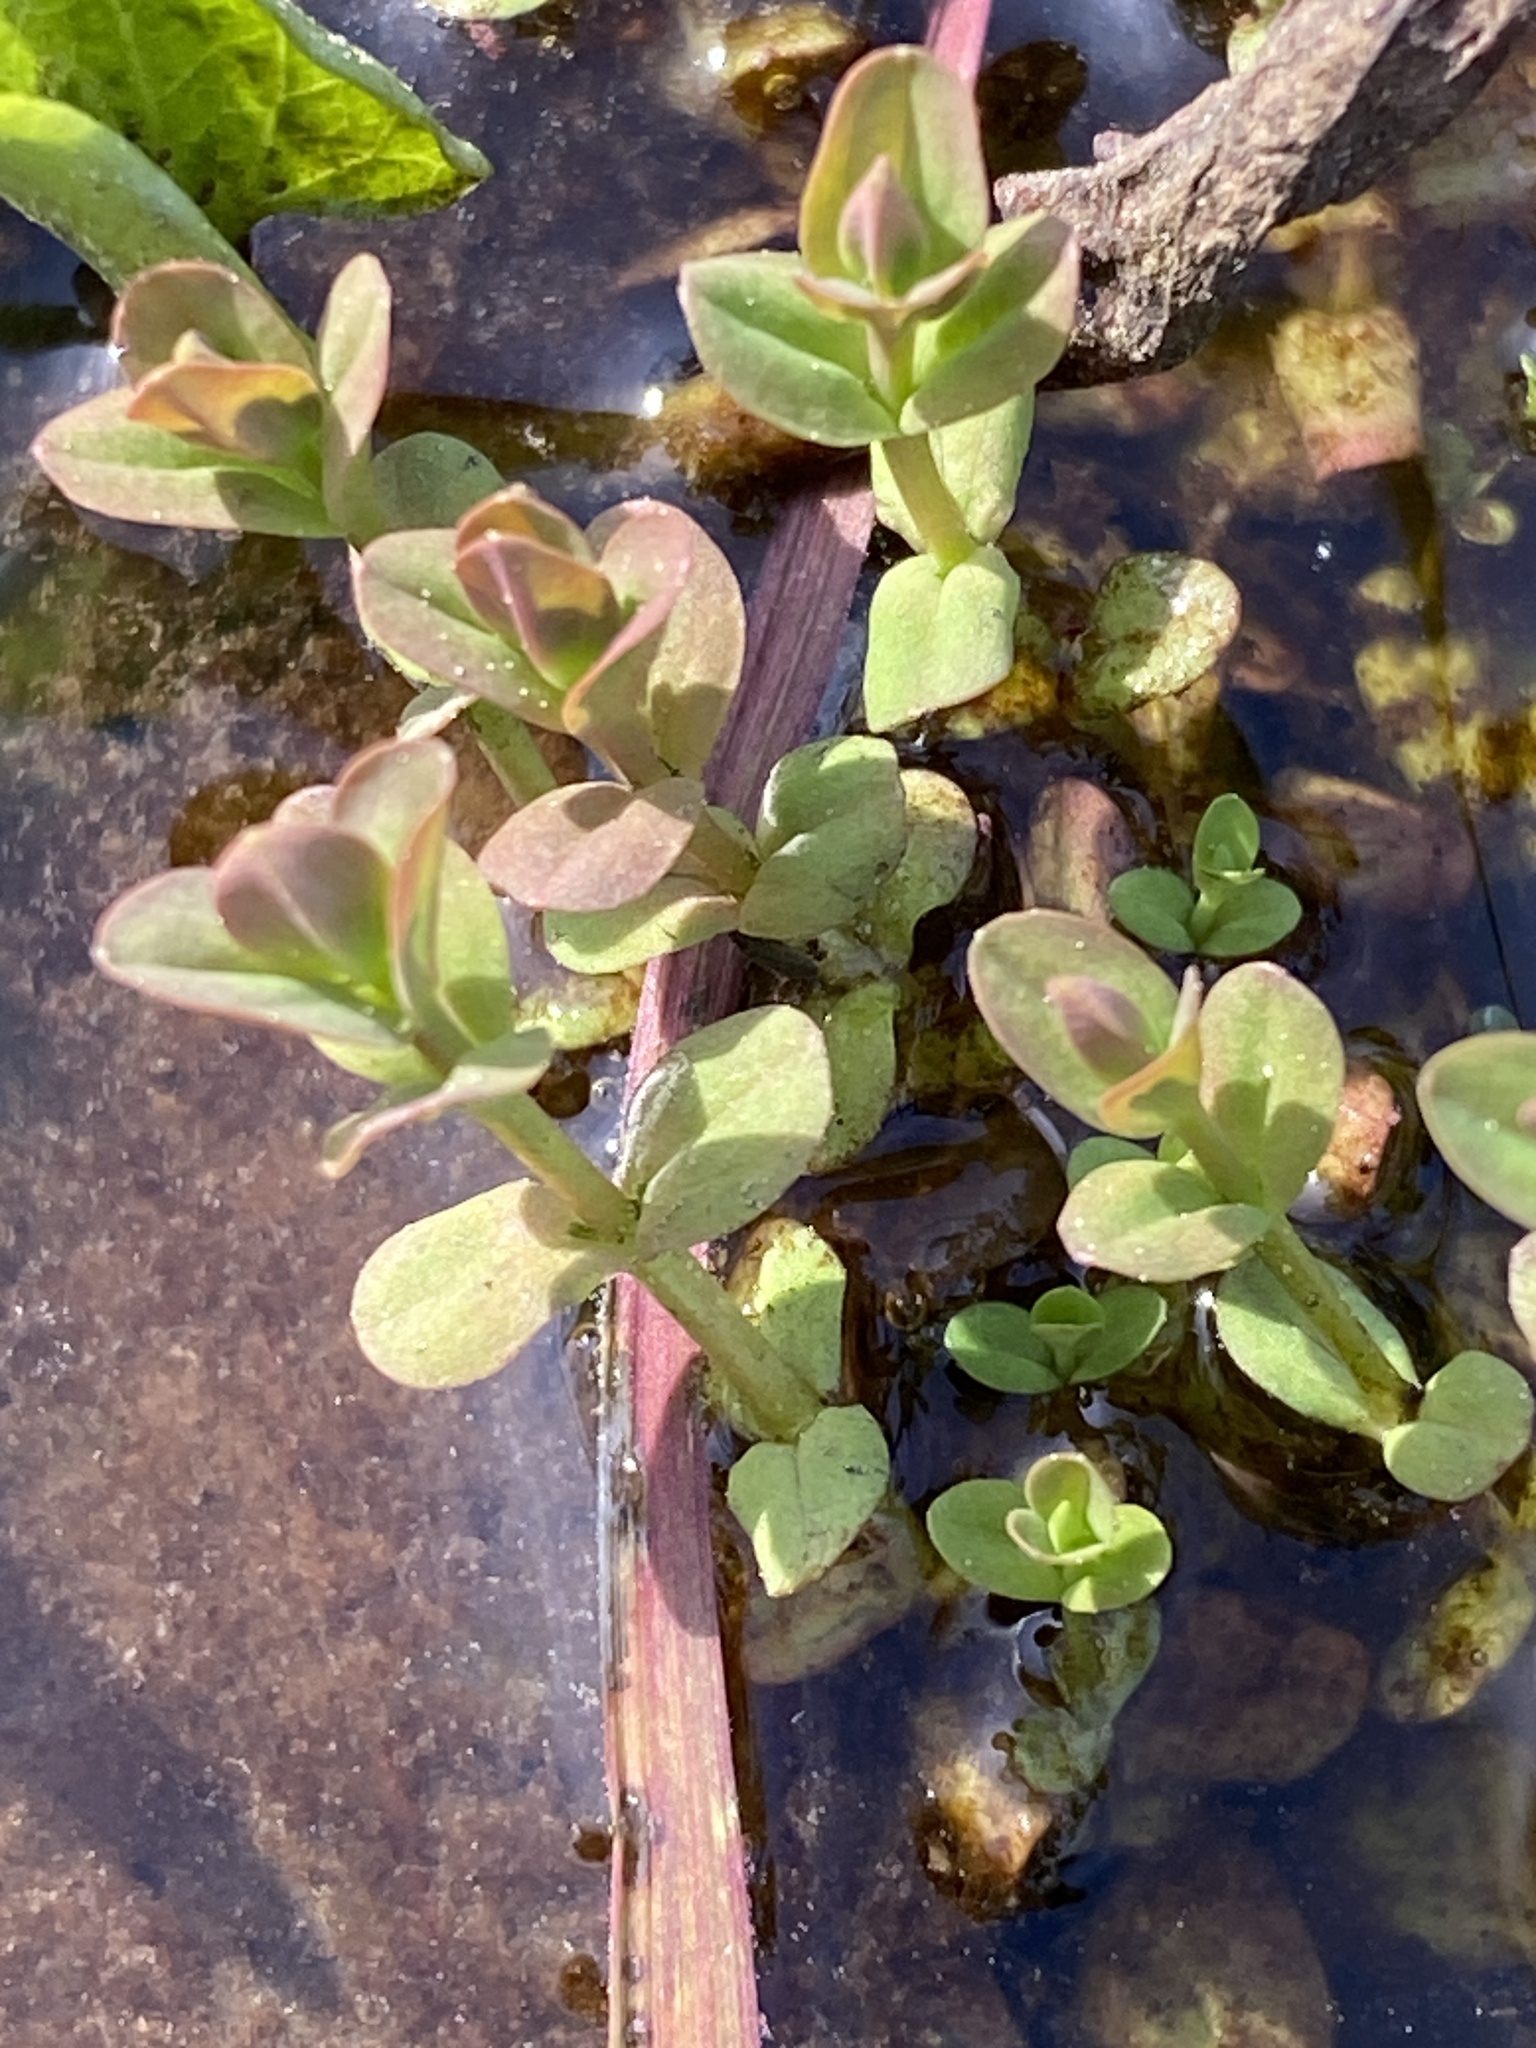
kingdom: Plantae
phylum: Tracheophyta
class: Magnoliopsida
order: Malpighiales
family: Hypericaceae
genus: Hypericum
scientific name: Hypericum mutilum
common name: Dwarf st. john's-wort
